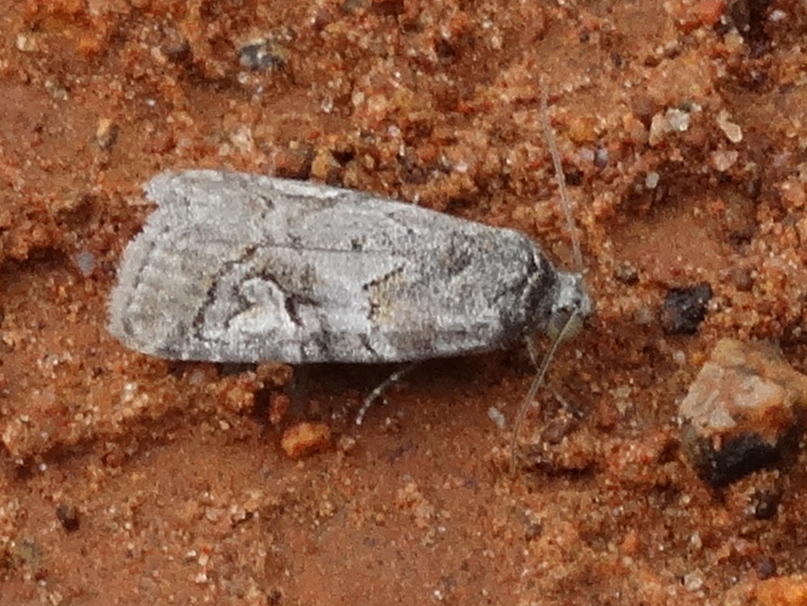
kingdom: Animalia
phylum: Arthropoda
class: Insecta
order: Lepidoptera
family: Noctuidae
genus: Metaponpneumata
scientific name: Metaponpneumata rogenhoferi
